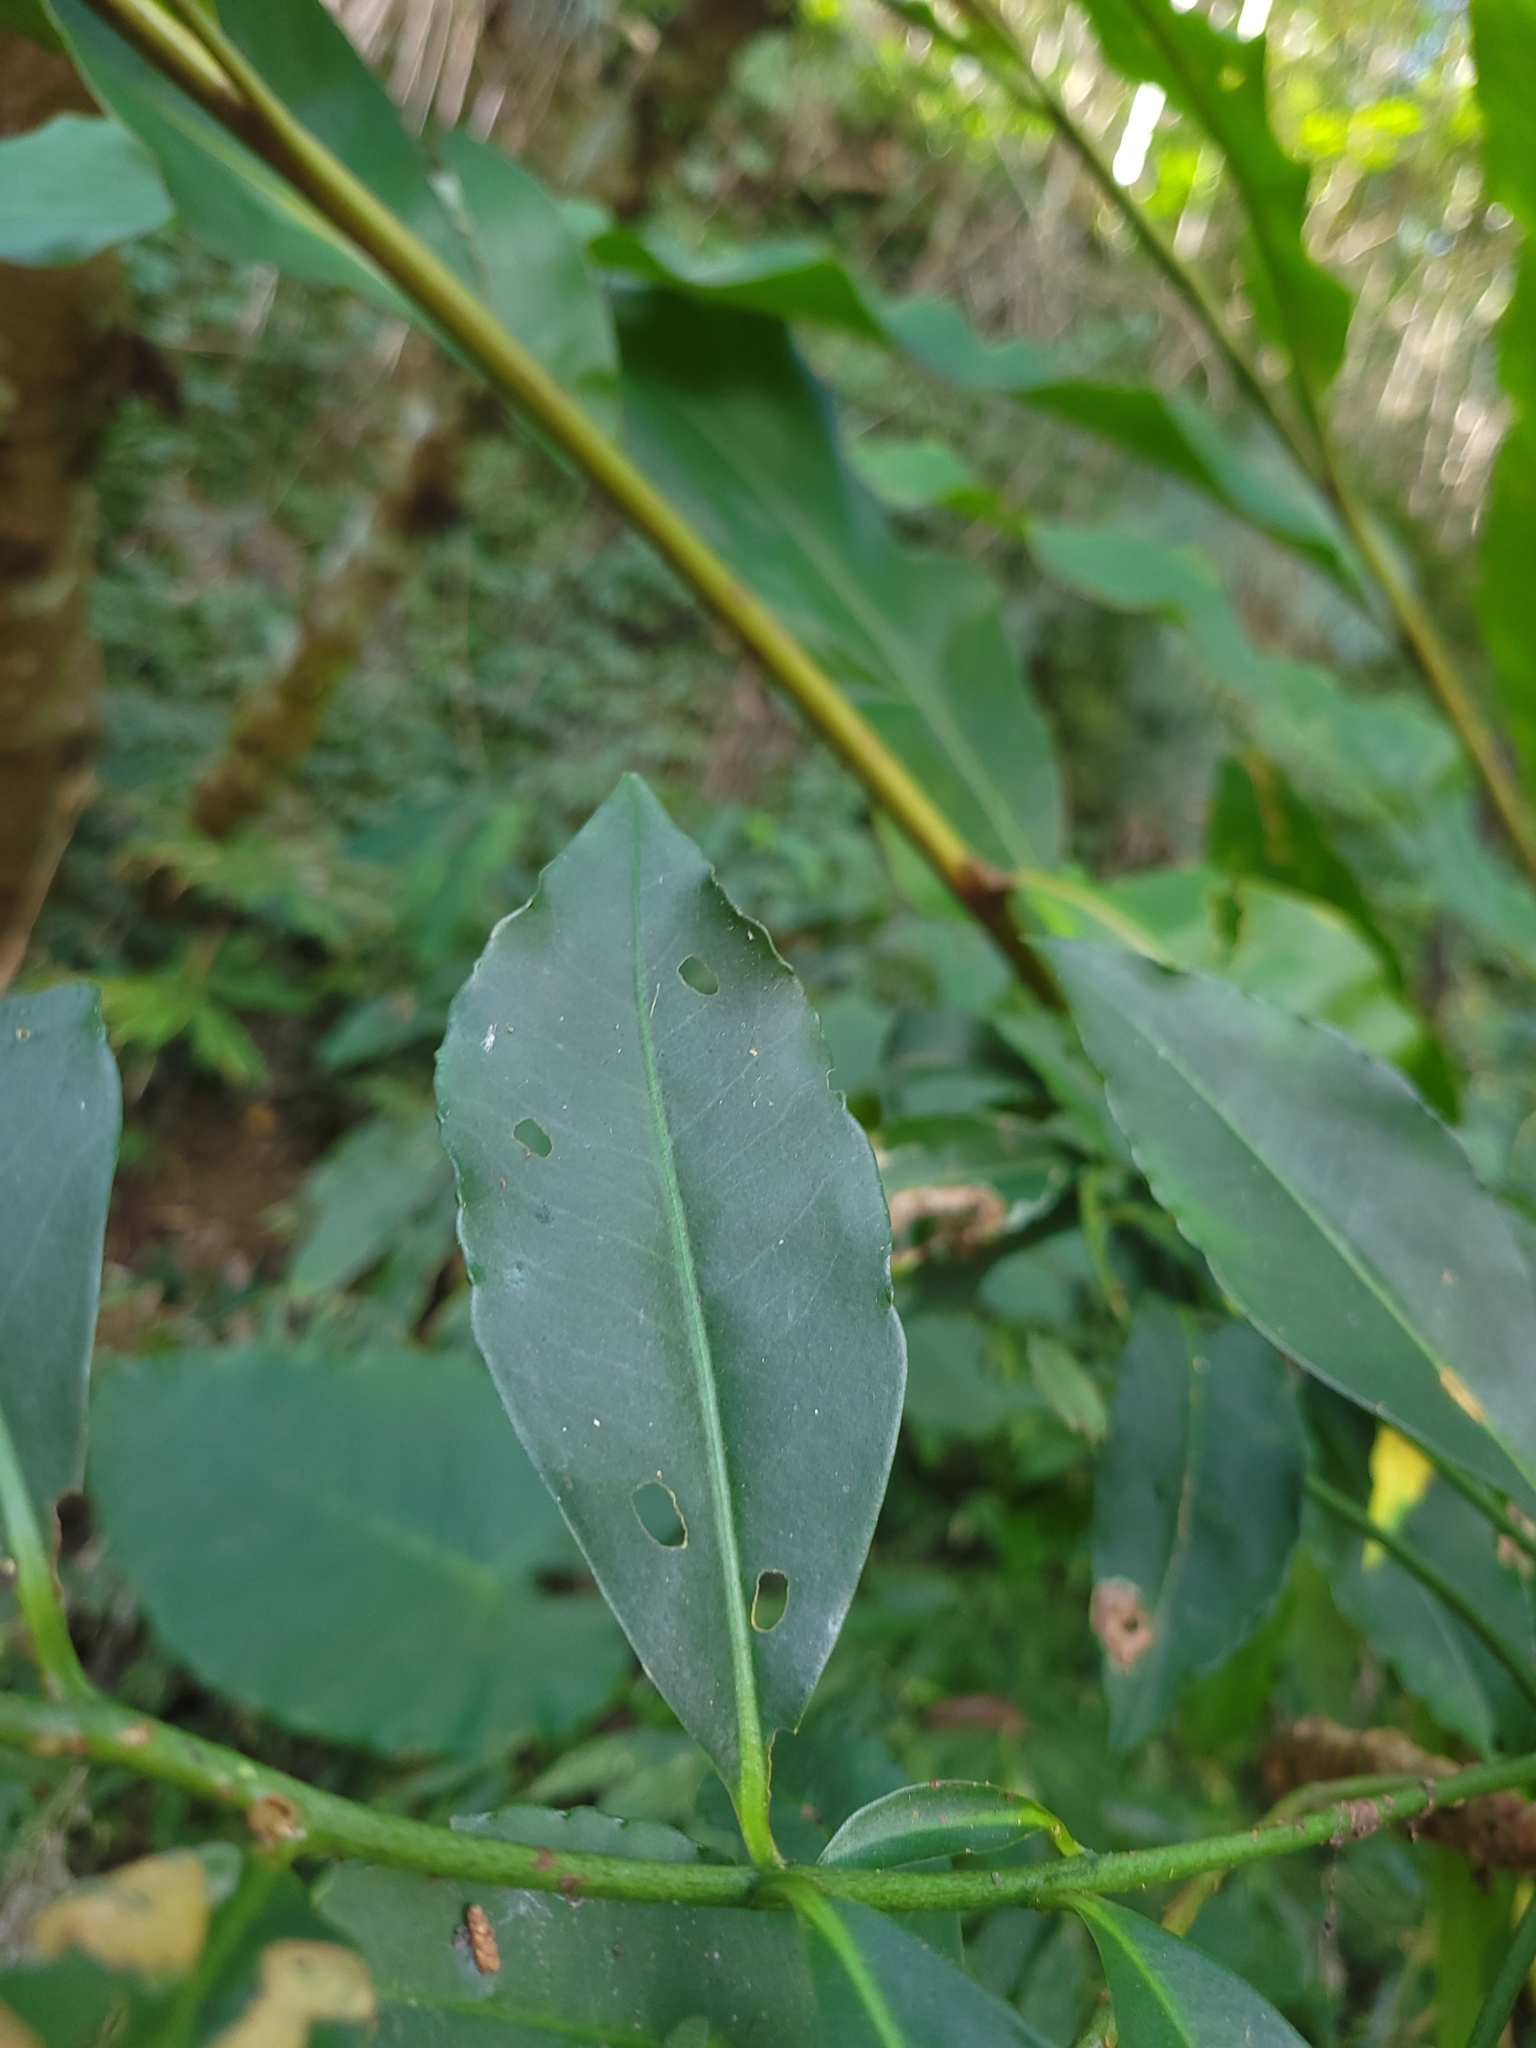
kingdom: Plantae
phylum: Tracheophyta
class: Magnoliopsida
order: Ericales
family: Primulaceae
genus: Ardisia
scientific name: Ardisia polysticta
